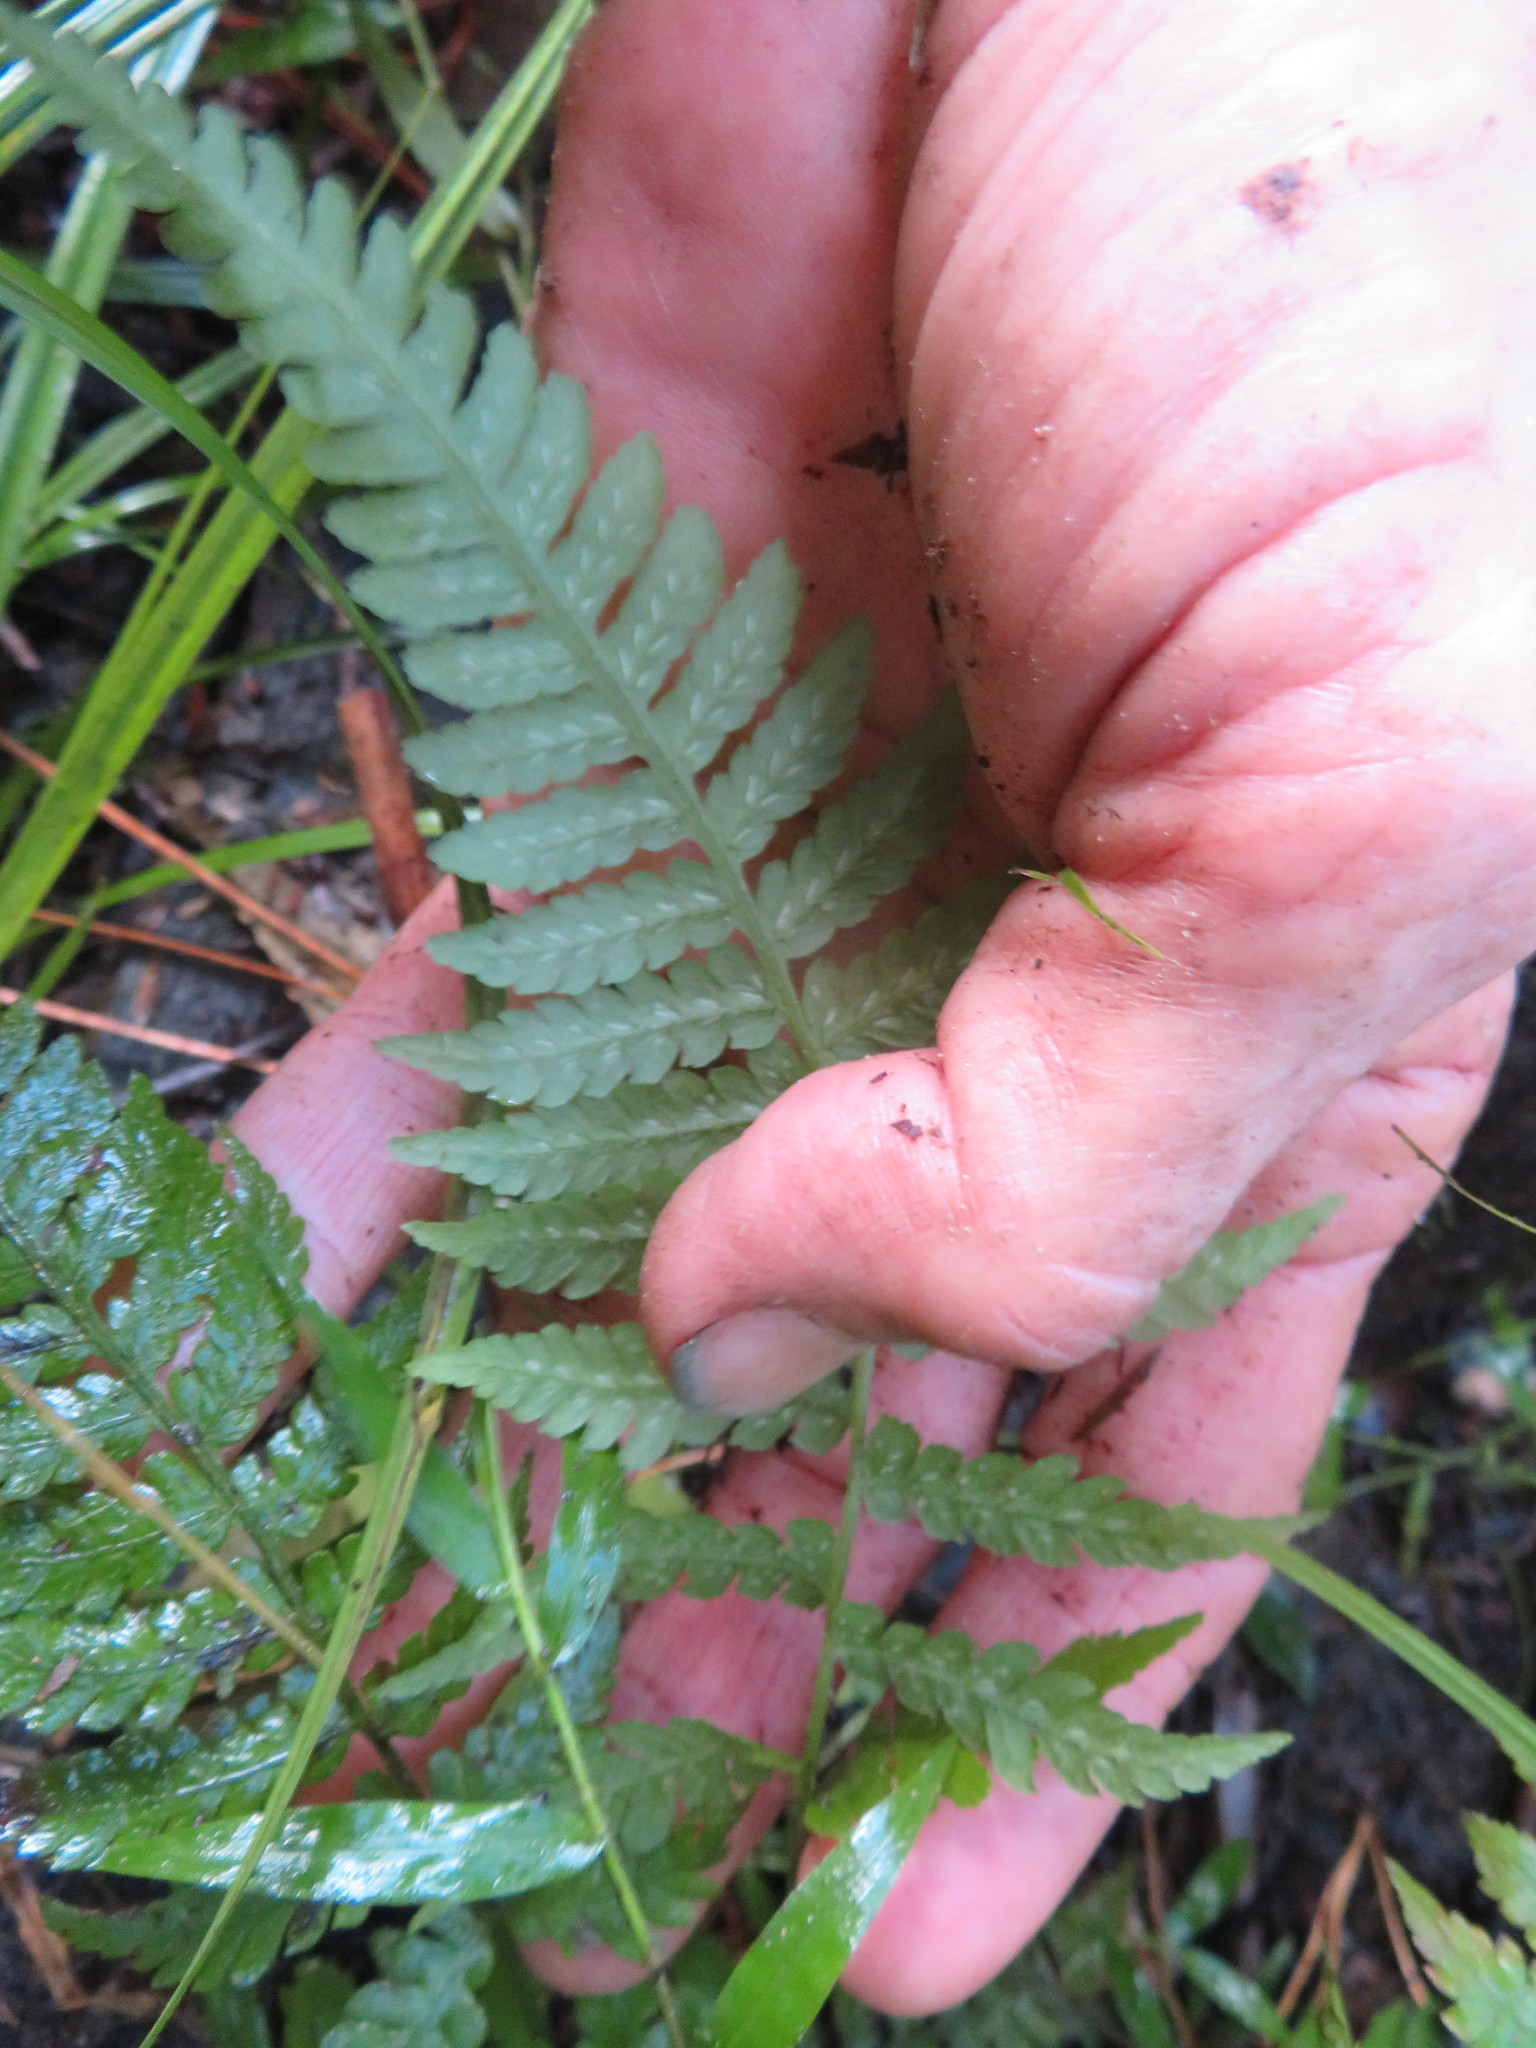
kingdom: Plantae
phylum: Tracheophyta
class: Polypodiopsida
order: Polypodiales
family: Athyriaceae
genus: Diplazium
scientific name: Diplazium congruum
